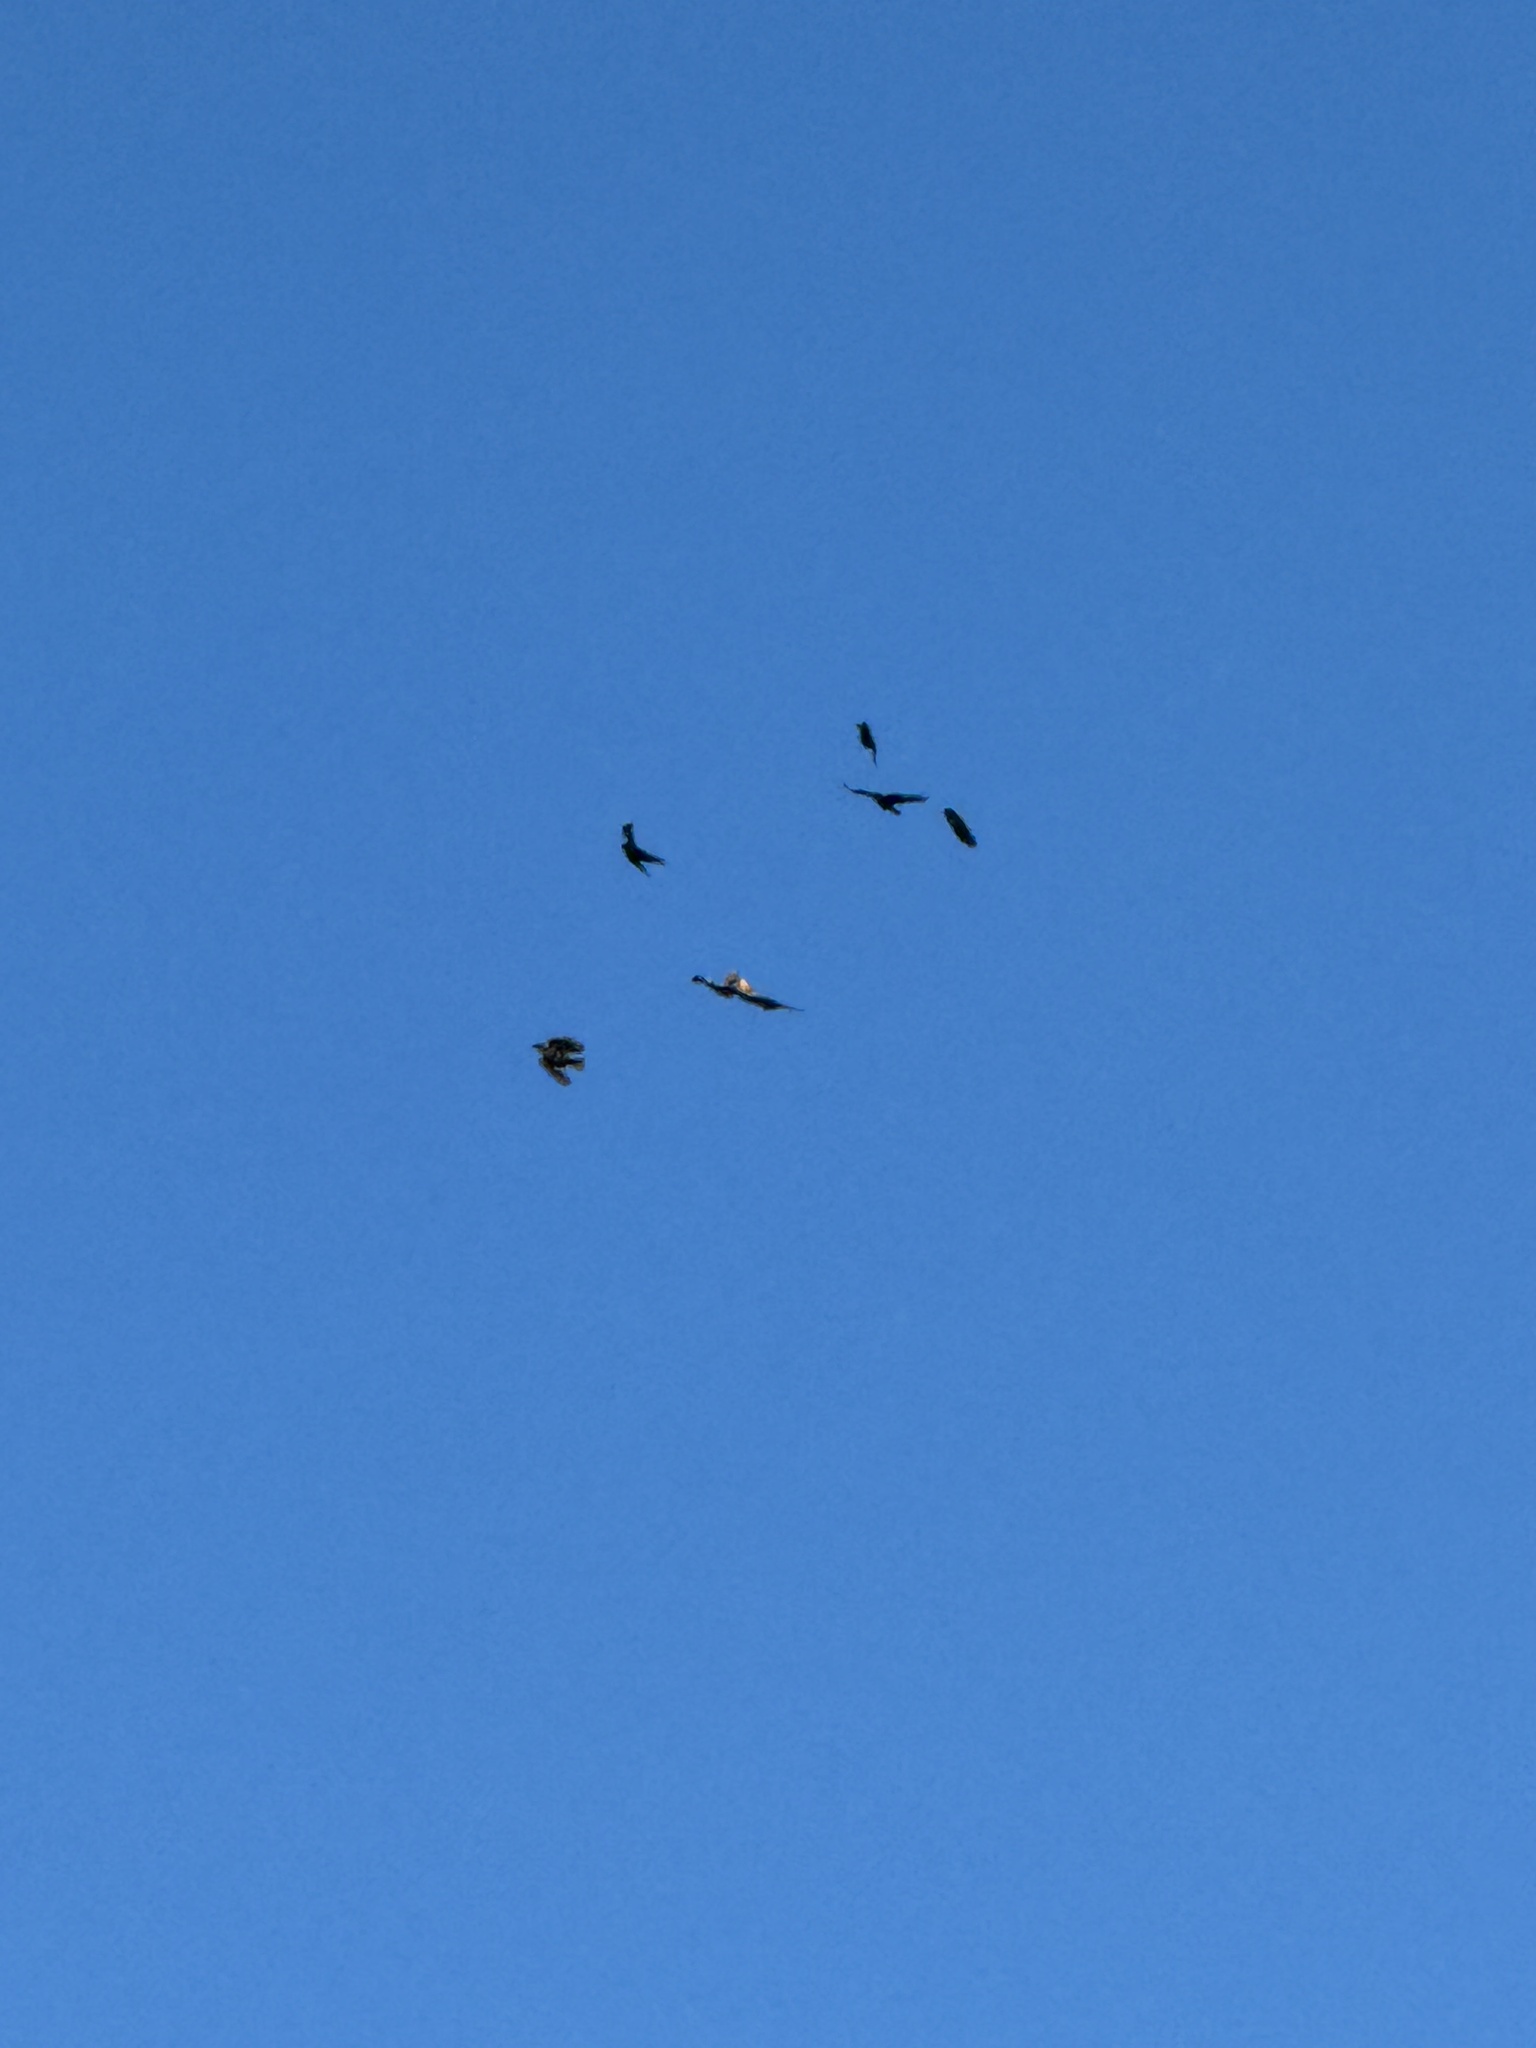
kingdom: Animalia
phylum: Chordata
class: Aves
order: Accipitriformes
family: Accipitridae
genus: Buteo
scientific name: Buteo jamaicensis
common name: Red-tailed hawk
